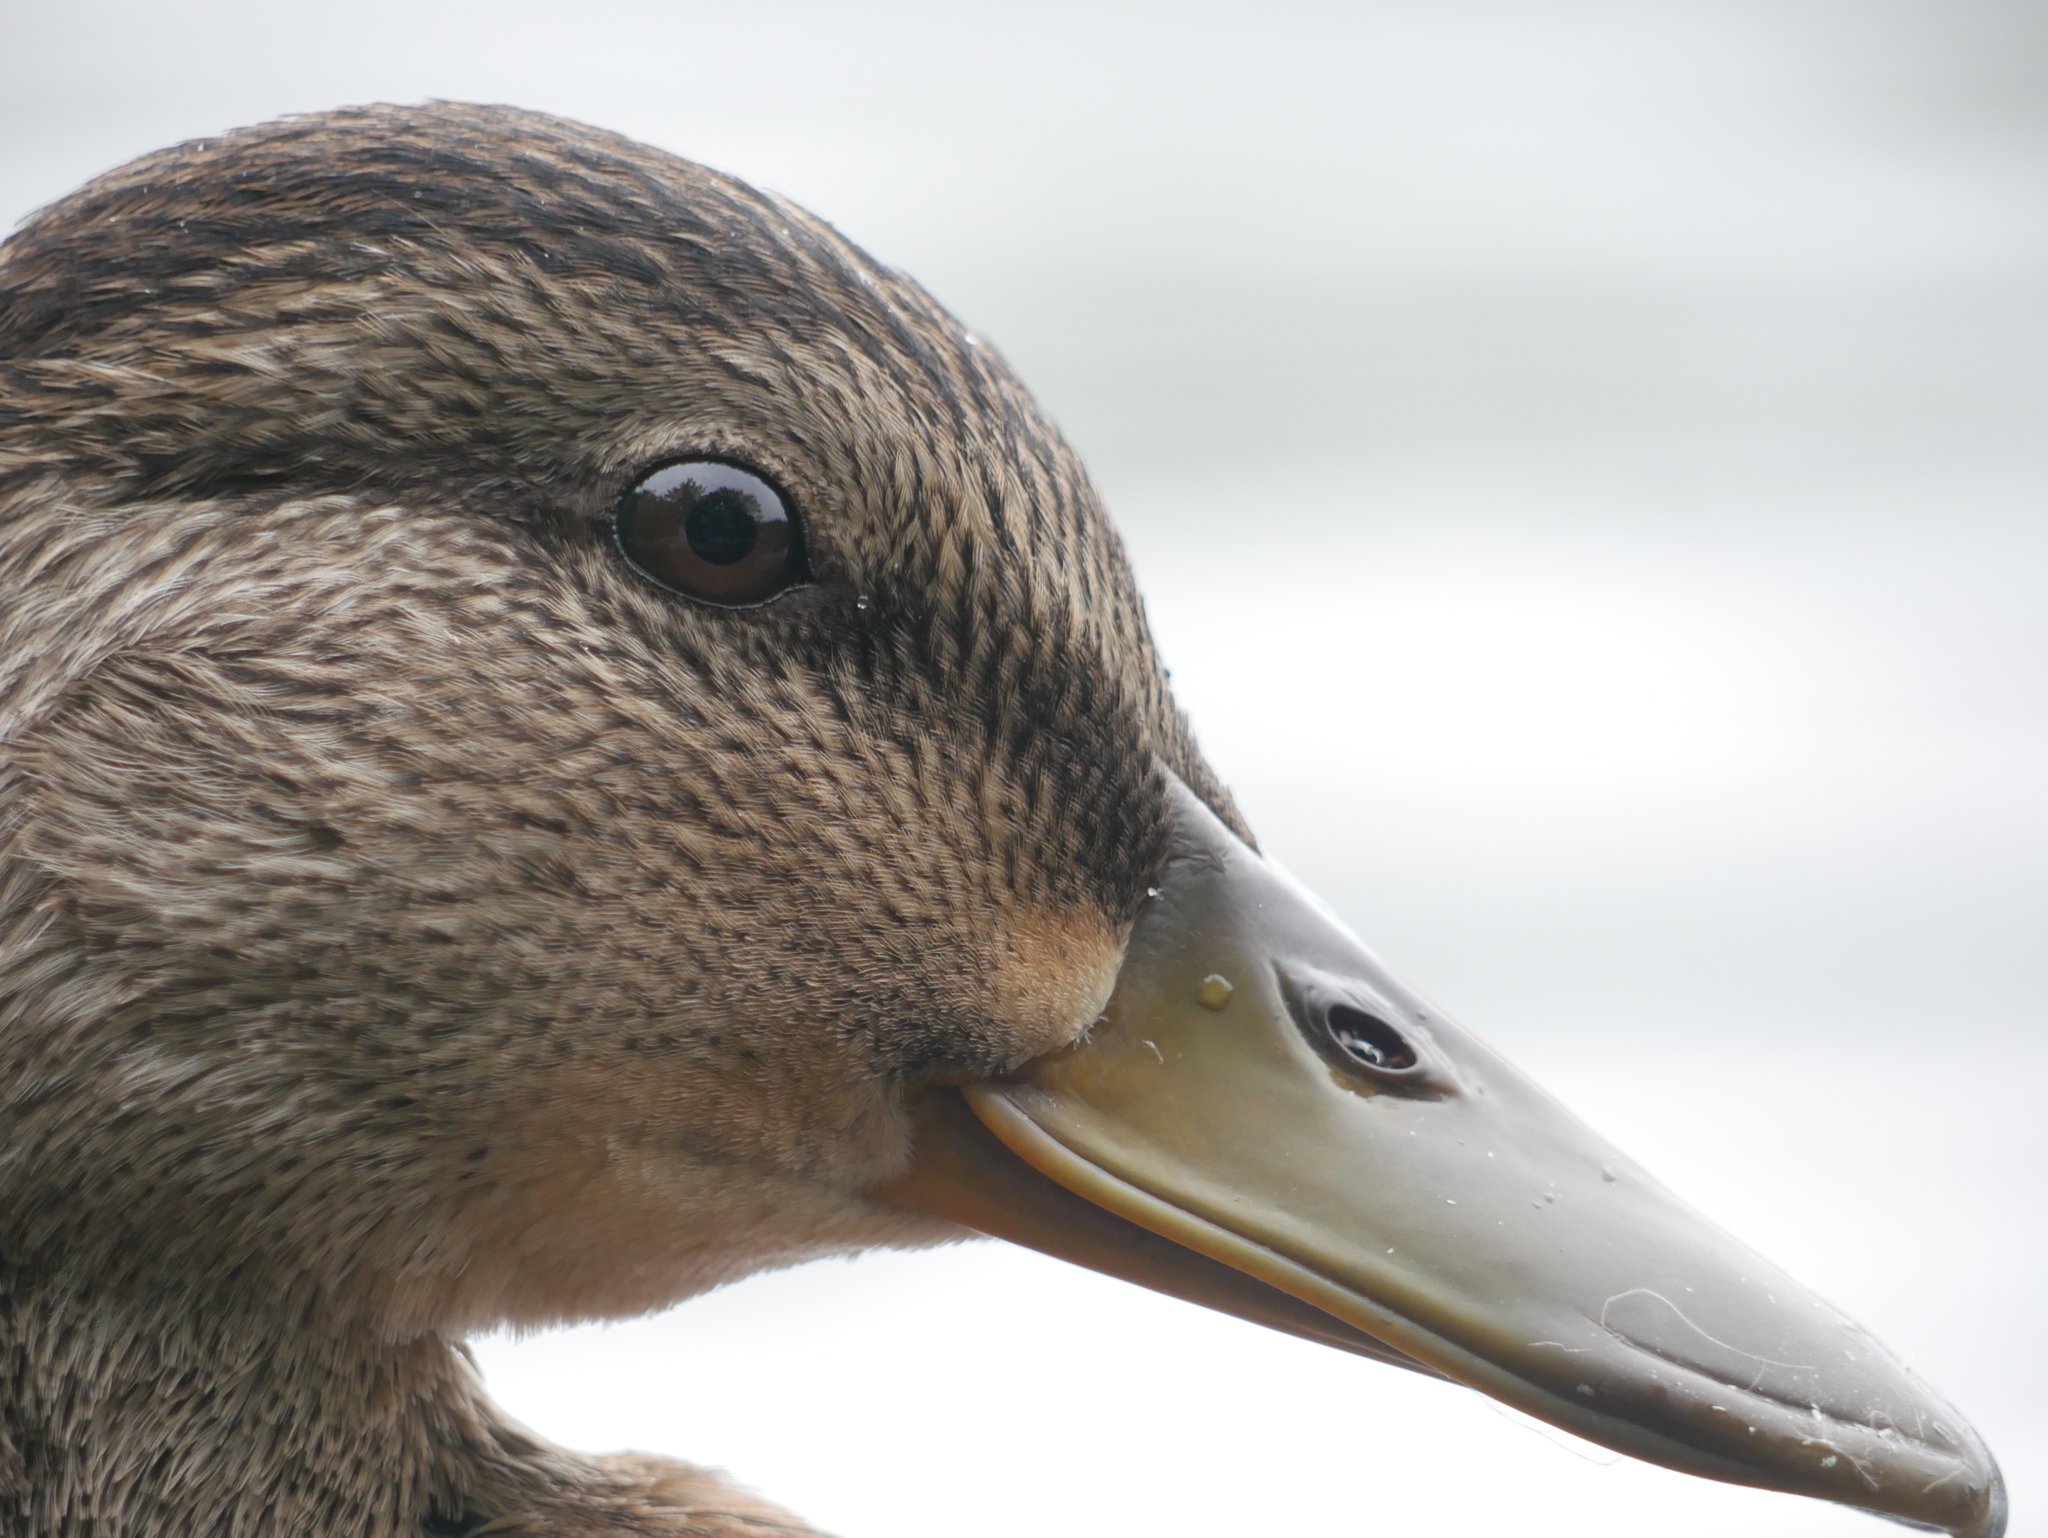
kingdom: Animalia
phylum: Chordata
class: Aves
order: Anseriformes
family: Anatidae
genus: Anas
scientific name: Anas platyrhynchos
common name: Mallard
